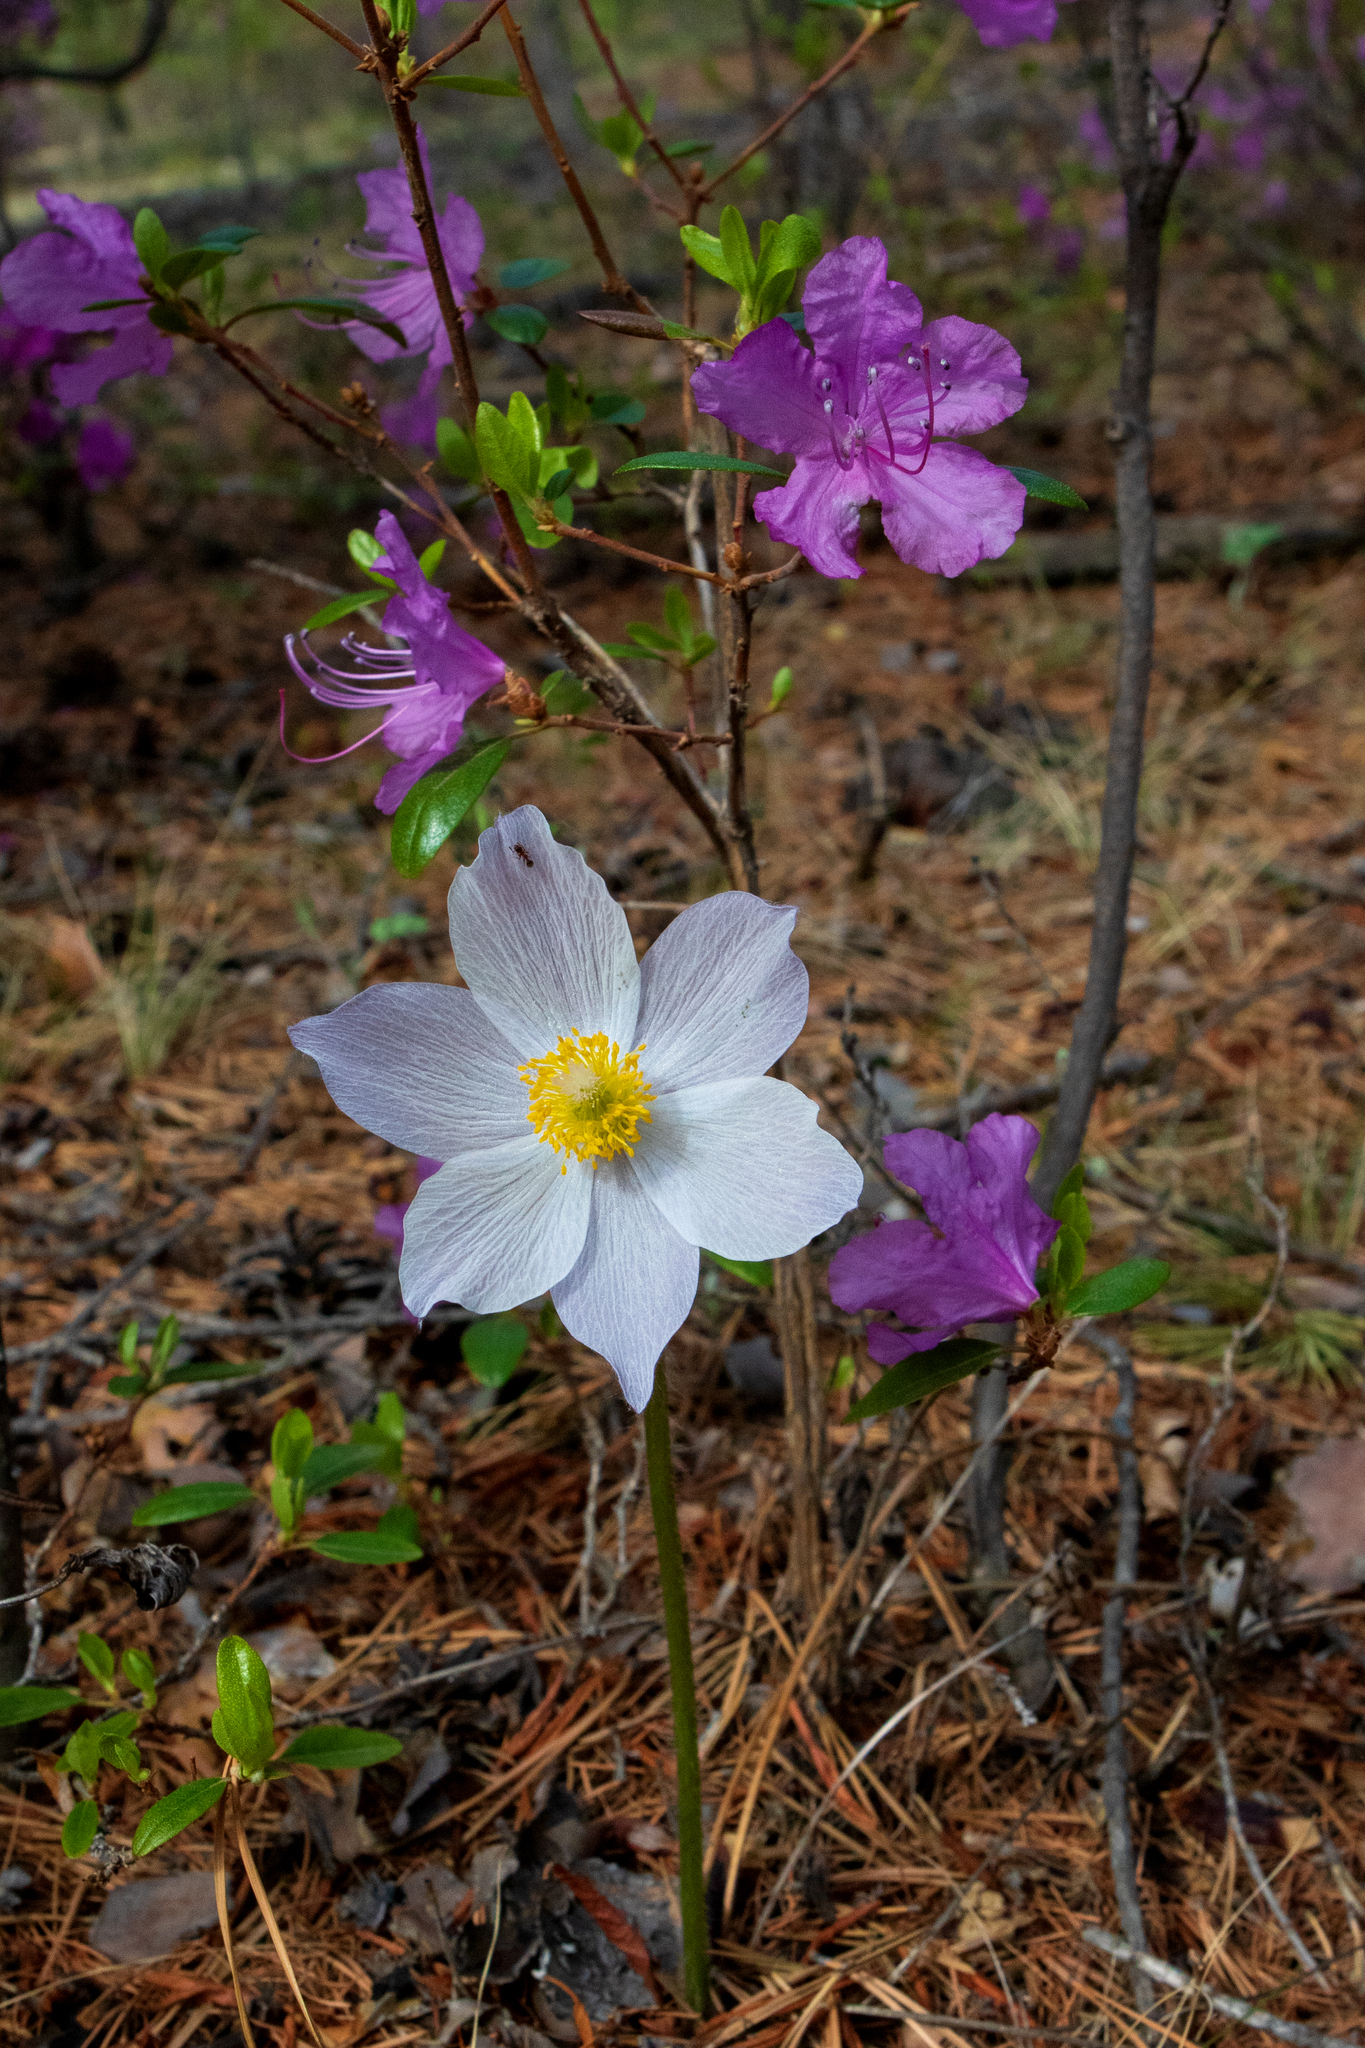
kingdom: Plantae
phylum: Tracheophyta
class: Magnoliopsida
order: Ranunculales
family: Ranunculaceae
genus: Pulsatilla
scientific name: Pulsatilla patens
